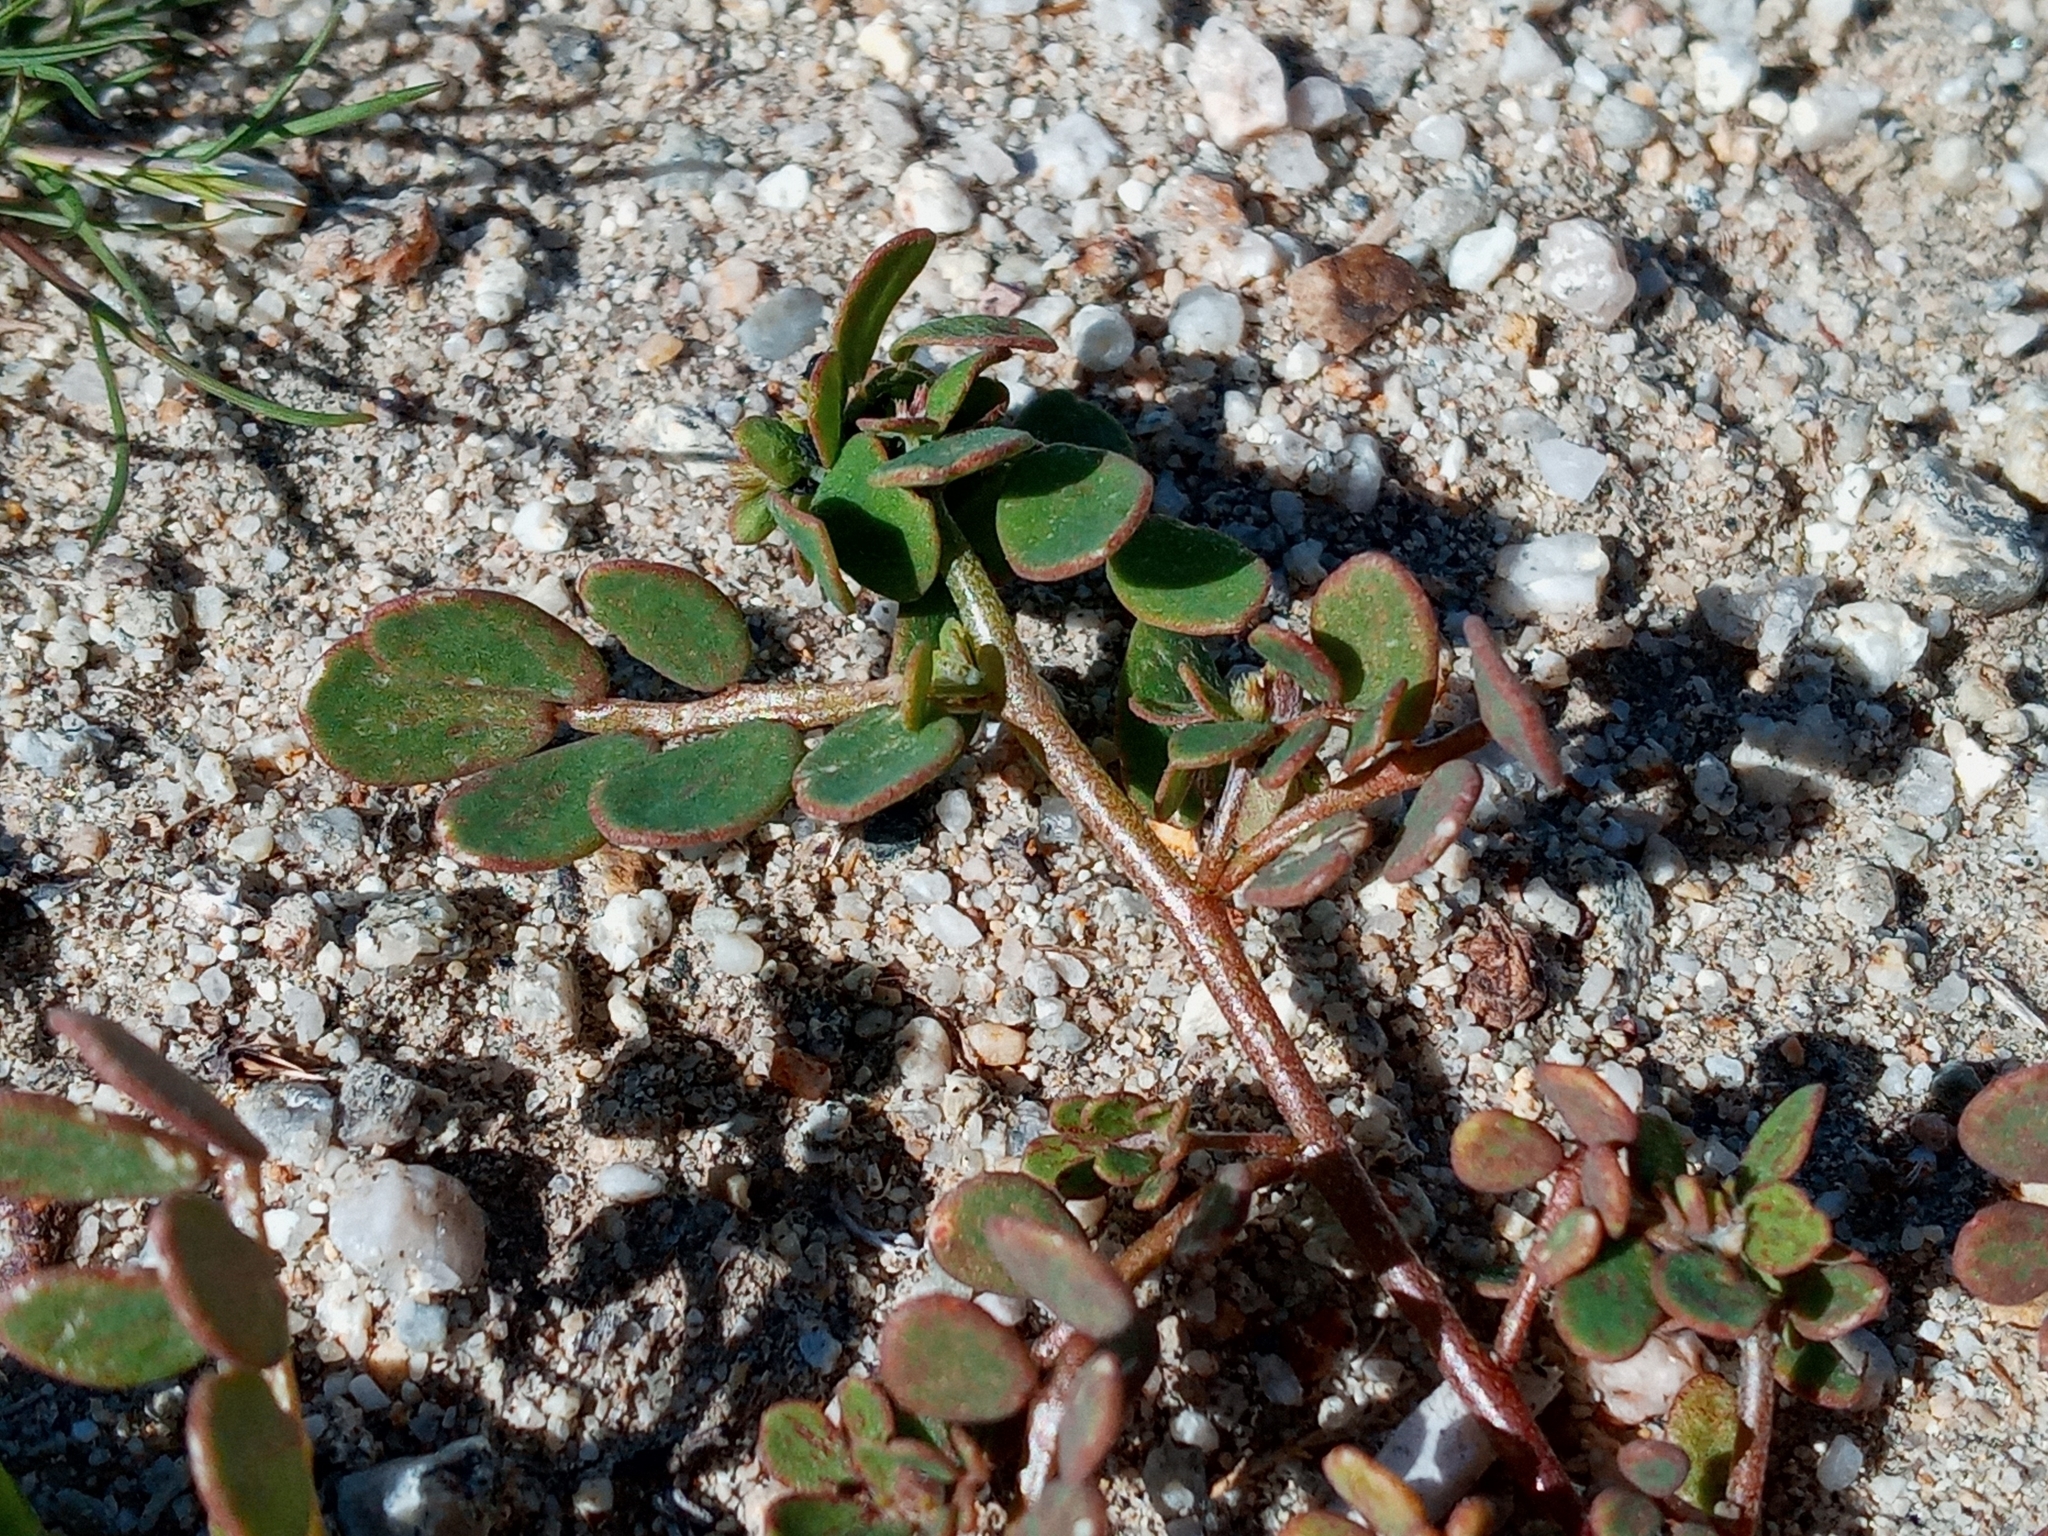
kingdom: Plantae
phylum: Tracheophyta
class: Magnoliopsida
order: Fabales
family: Fabaceae
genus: Acmispon
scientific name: Acmispon maritimus
